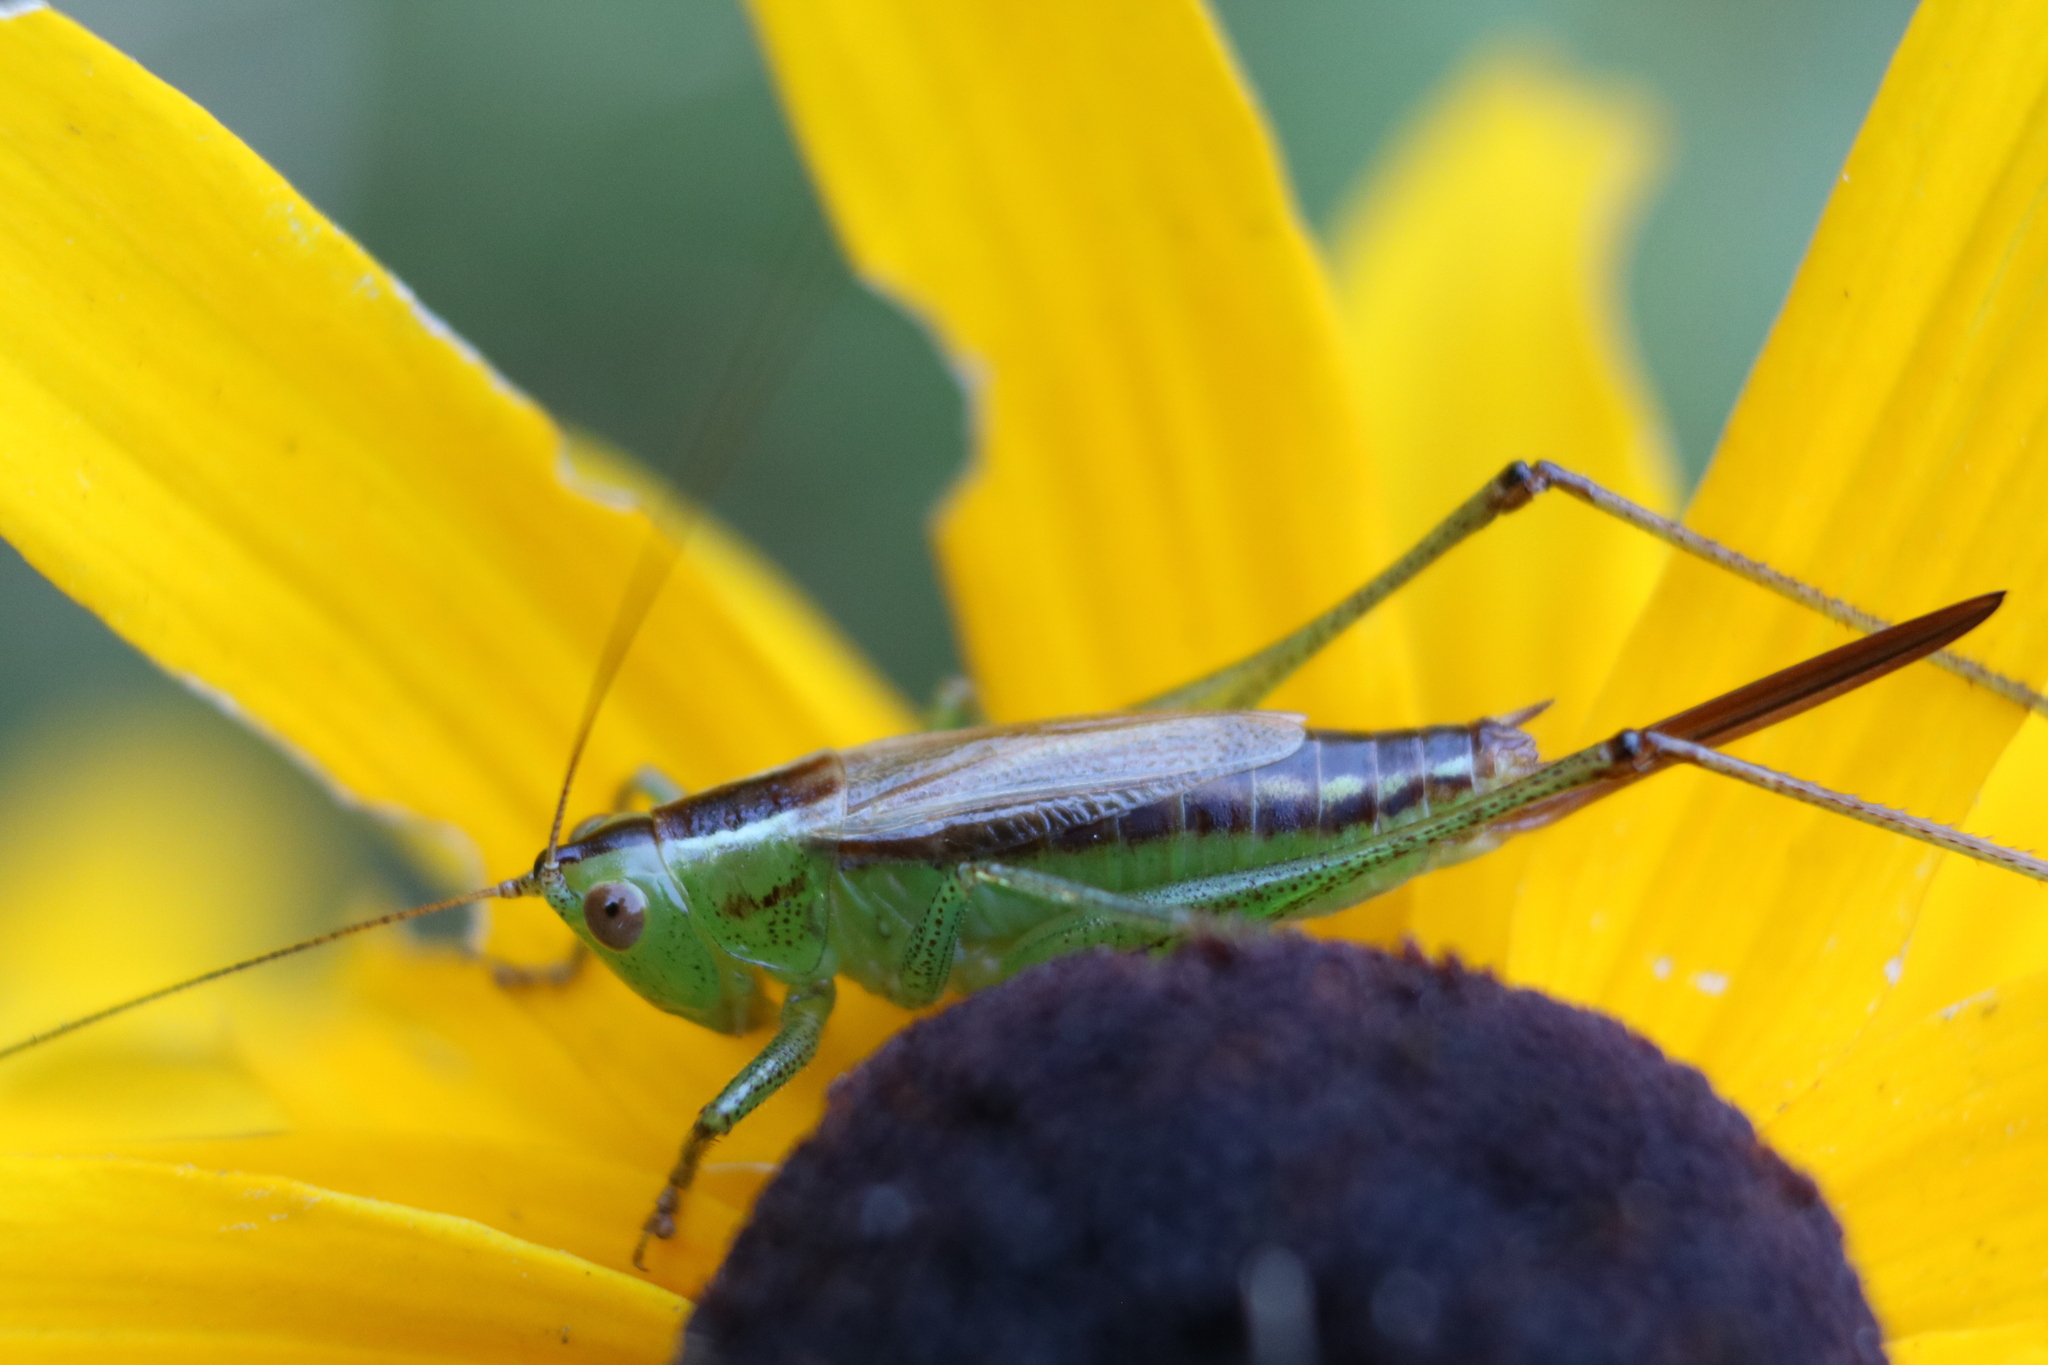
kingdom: Animalia
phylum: Arthropoda
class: Insecta
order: Orthoptera
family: Tettigoniidae
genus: Conocephalus
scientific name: Conocephalus brevipennis
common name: Short-winged meadow katydid
